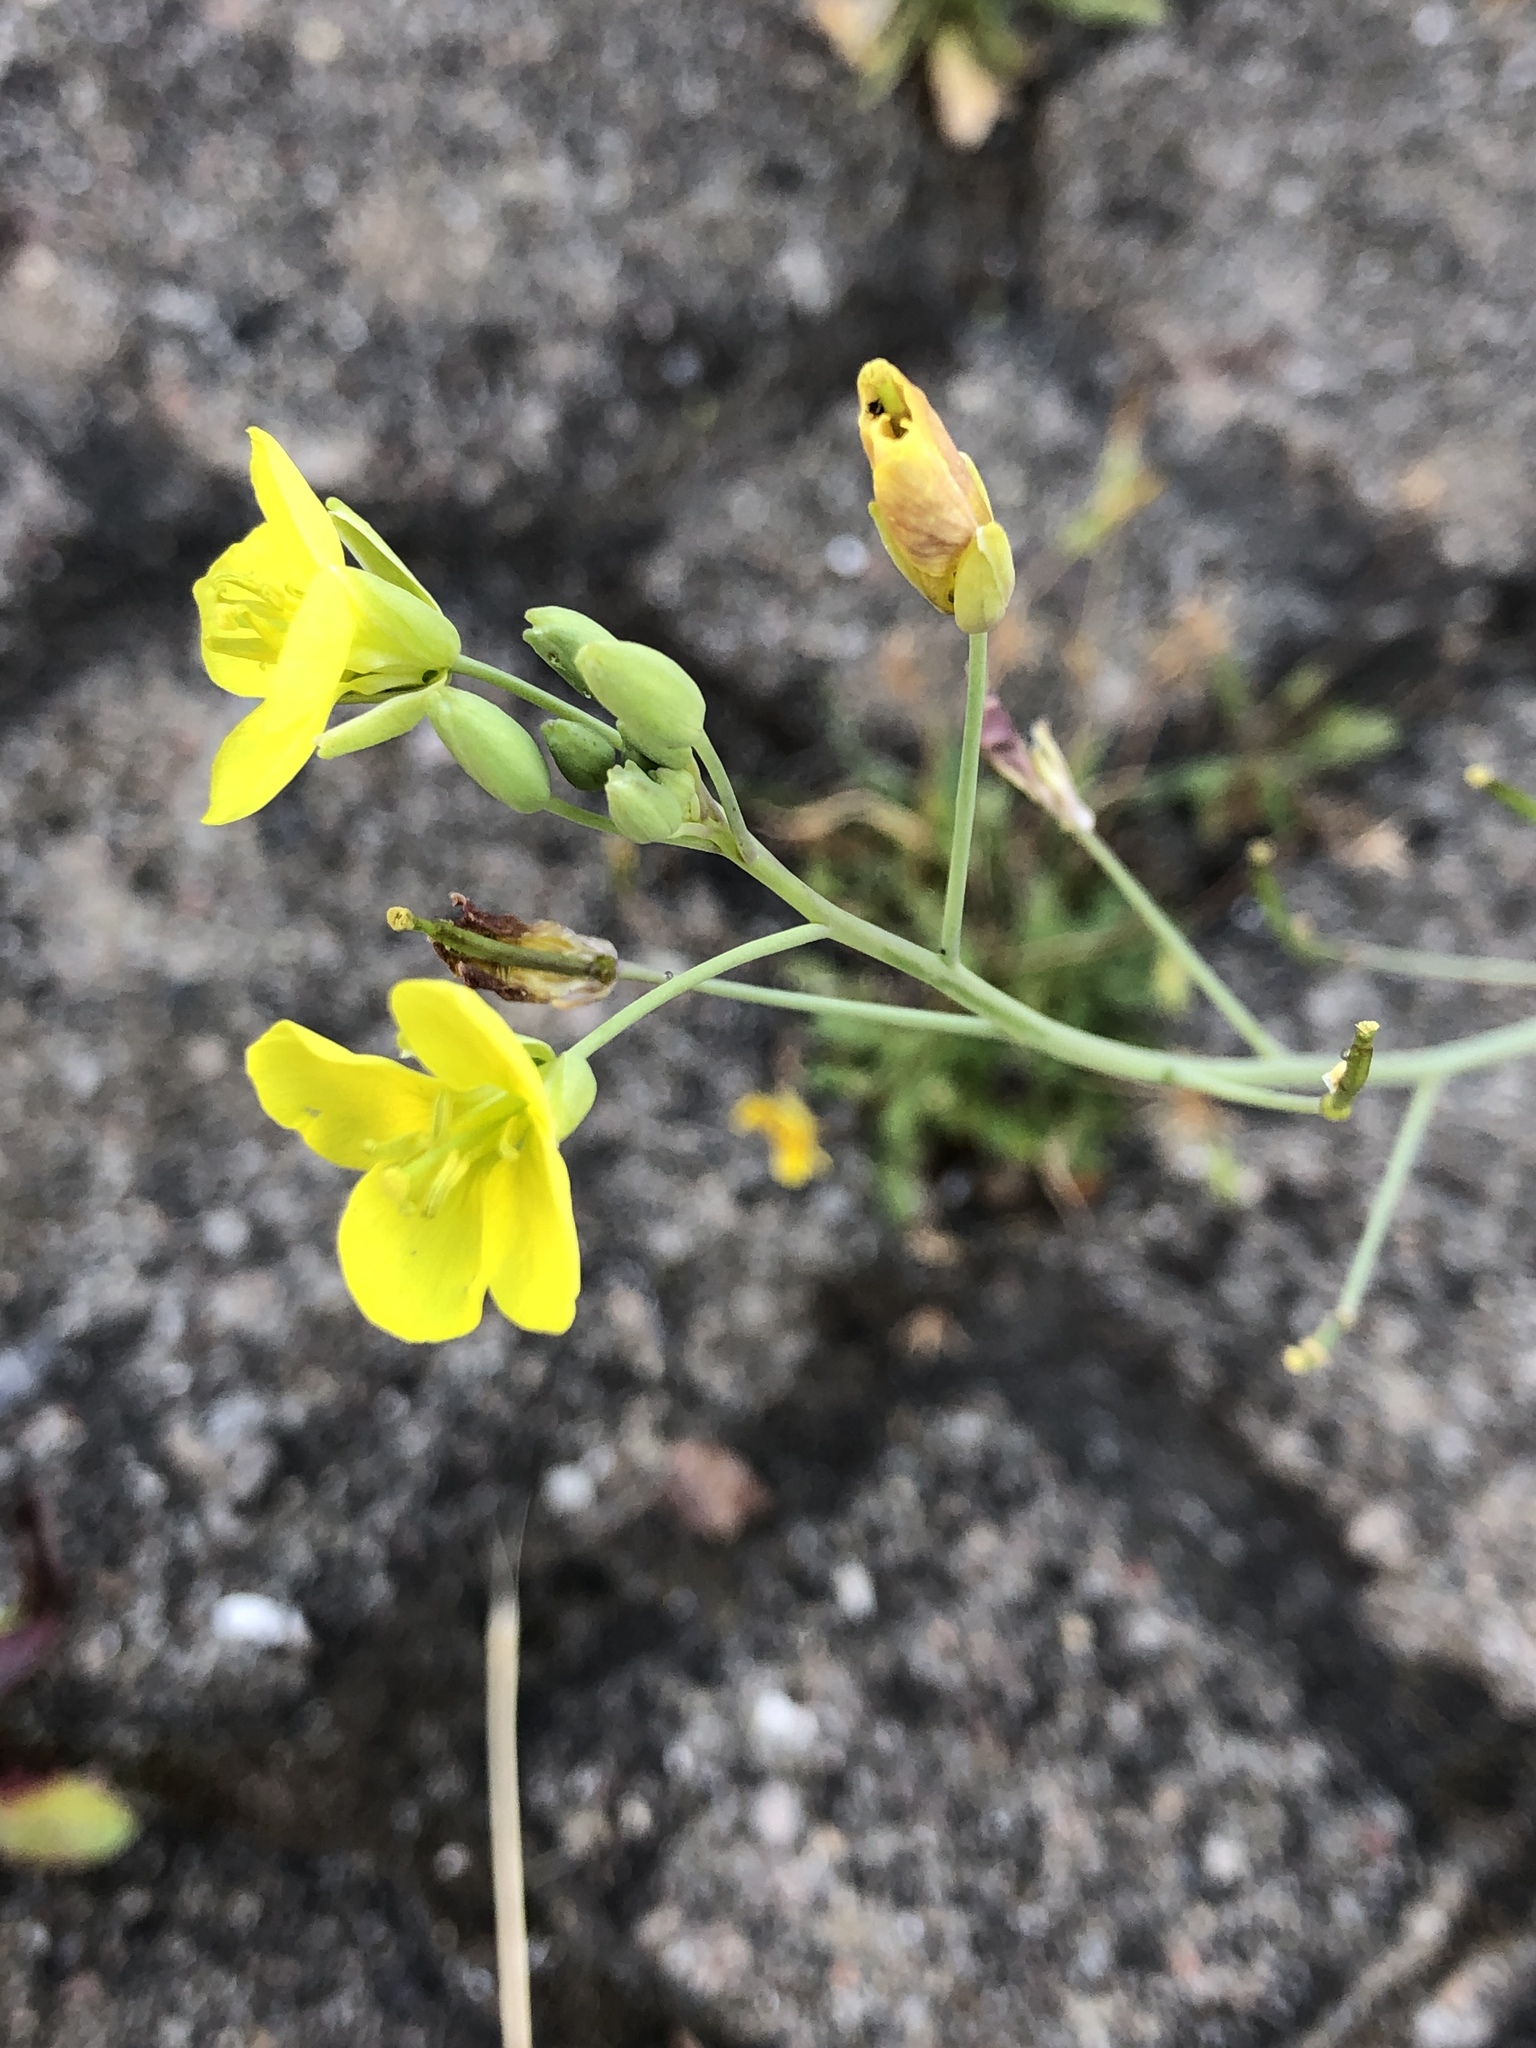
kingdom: Plantae
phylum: Tracheophyta
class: Magnoliopsida
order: Brassicales
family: Brassicaceae
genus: Diplotaxis
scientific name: Diplotaxis tenuifolia
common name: Perennial wall-rocket
